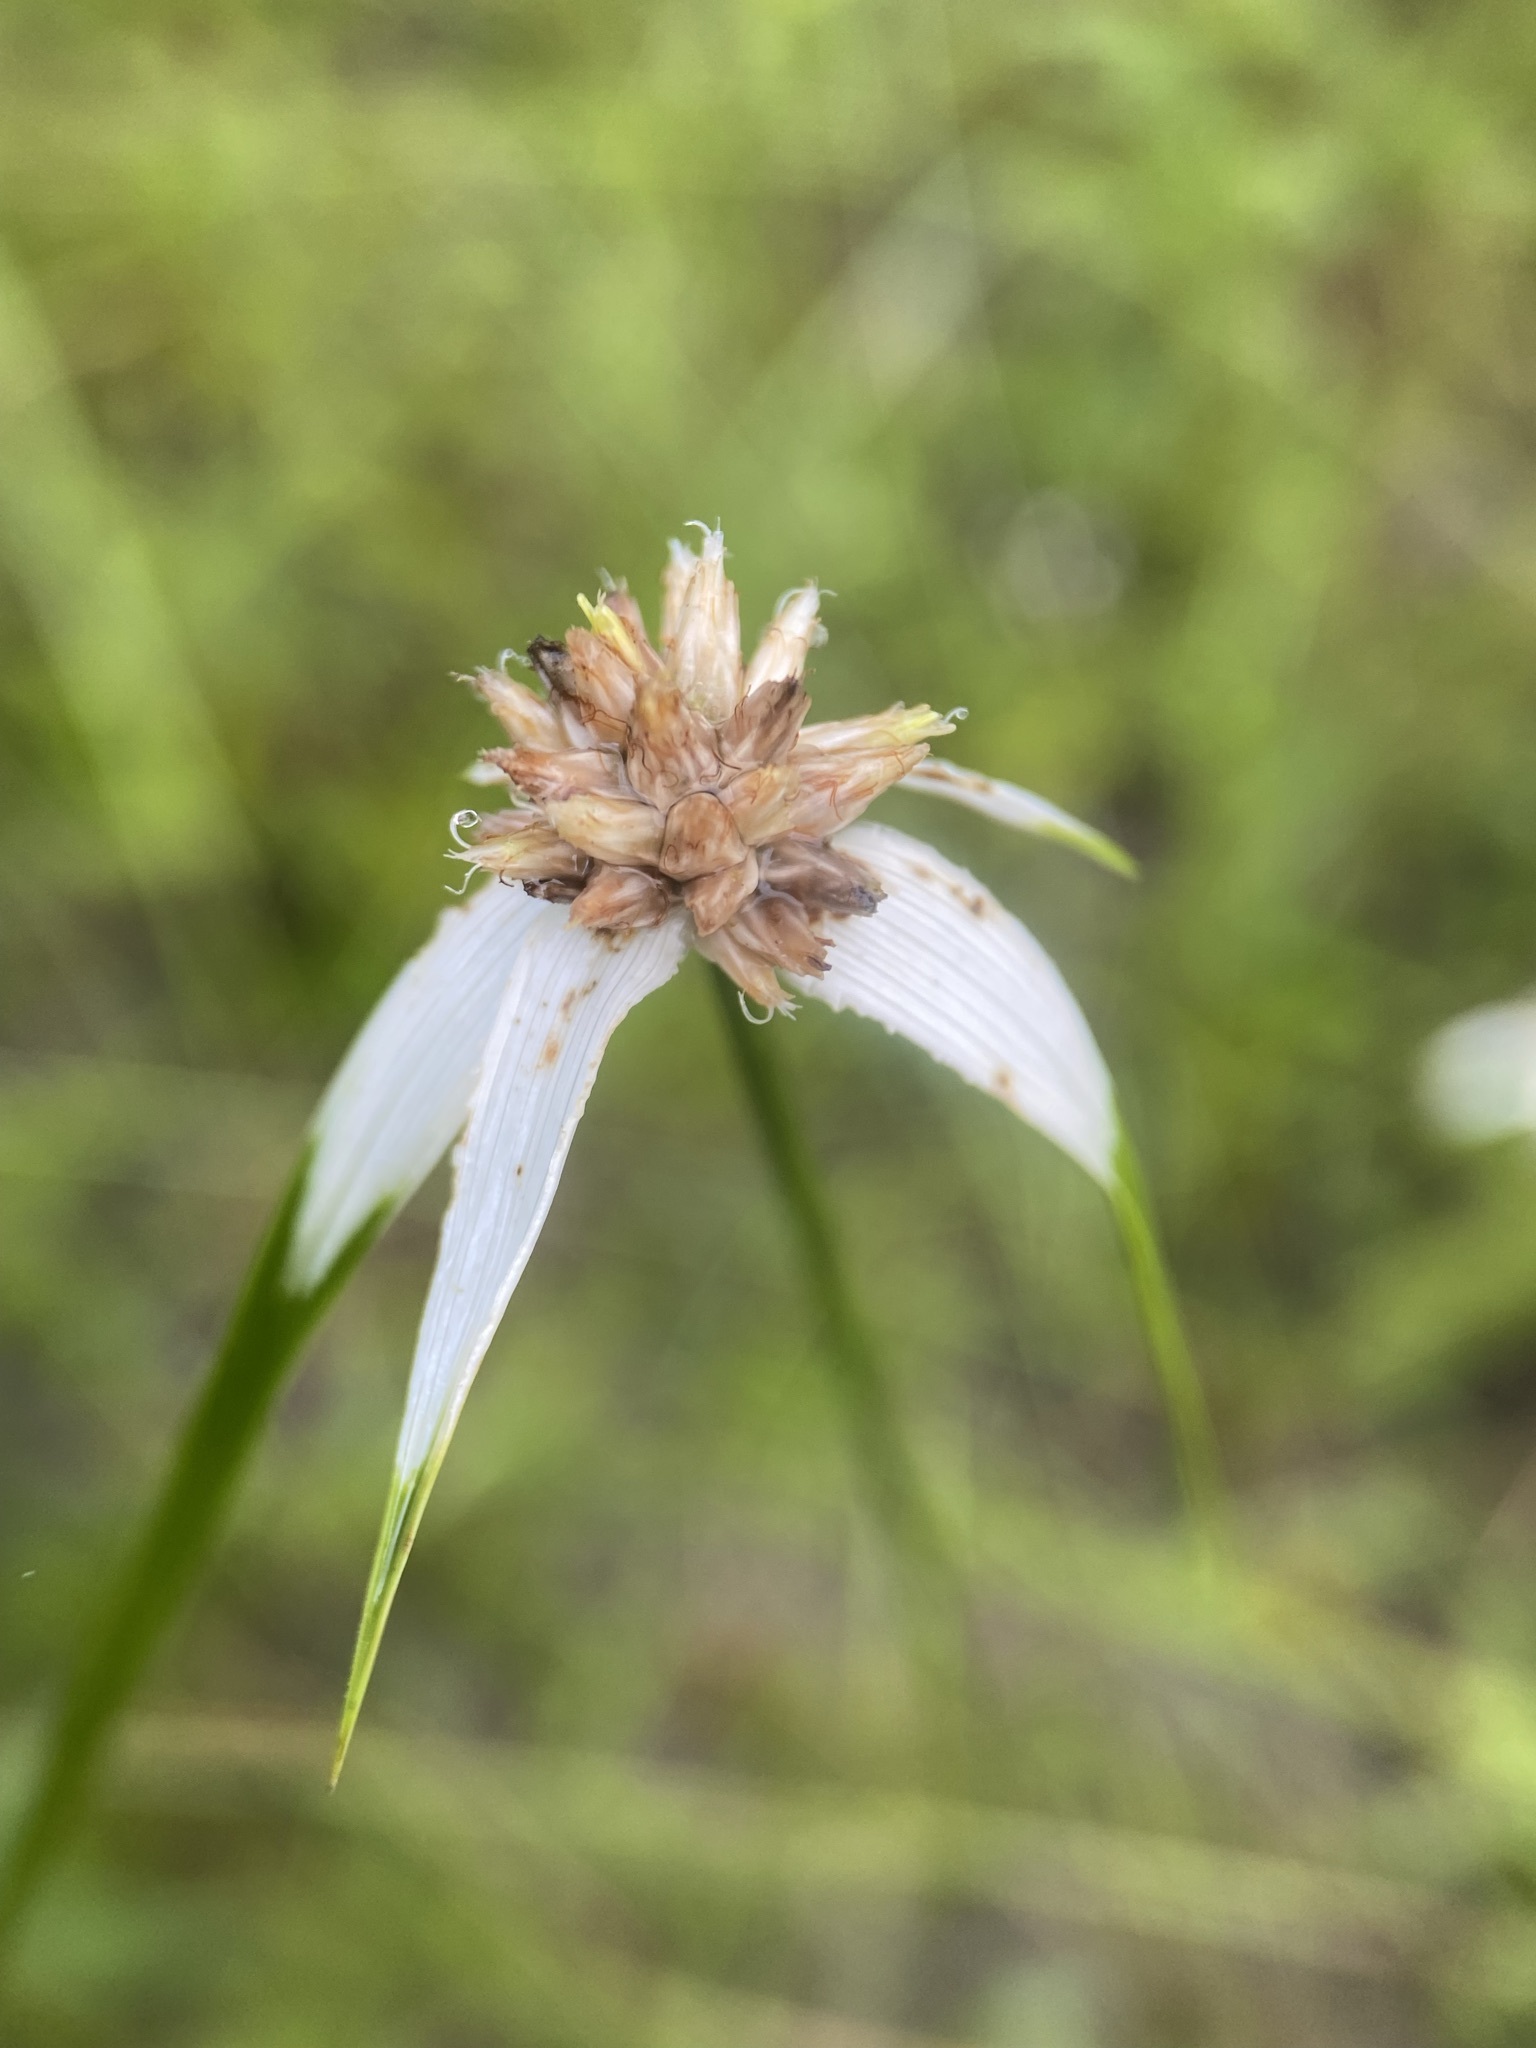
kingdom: Plantae
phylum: Tracheophyta
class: Liliopsida
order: Poales
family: Cyperaceae
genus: Rhynchospora
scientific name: Rhynchospora colorata
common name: Star sedge
